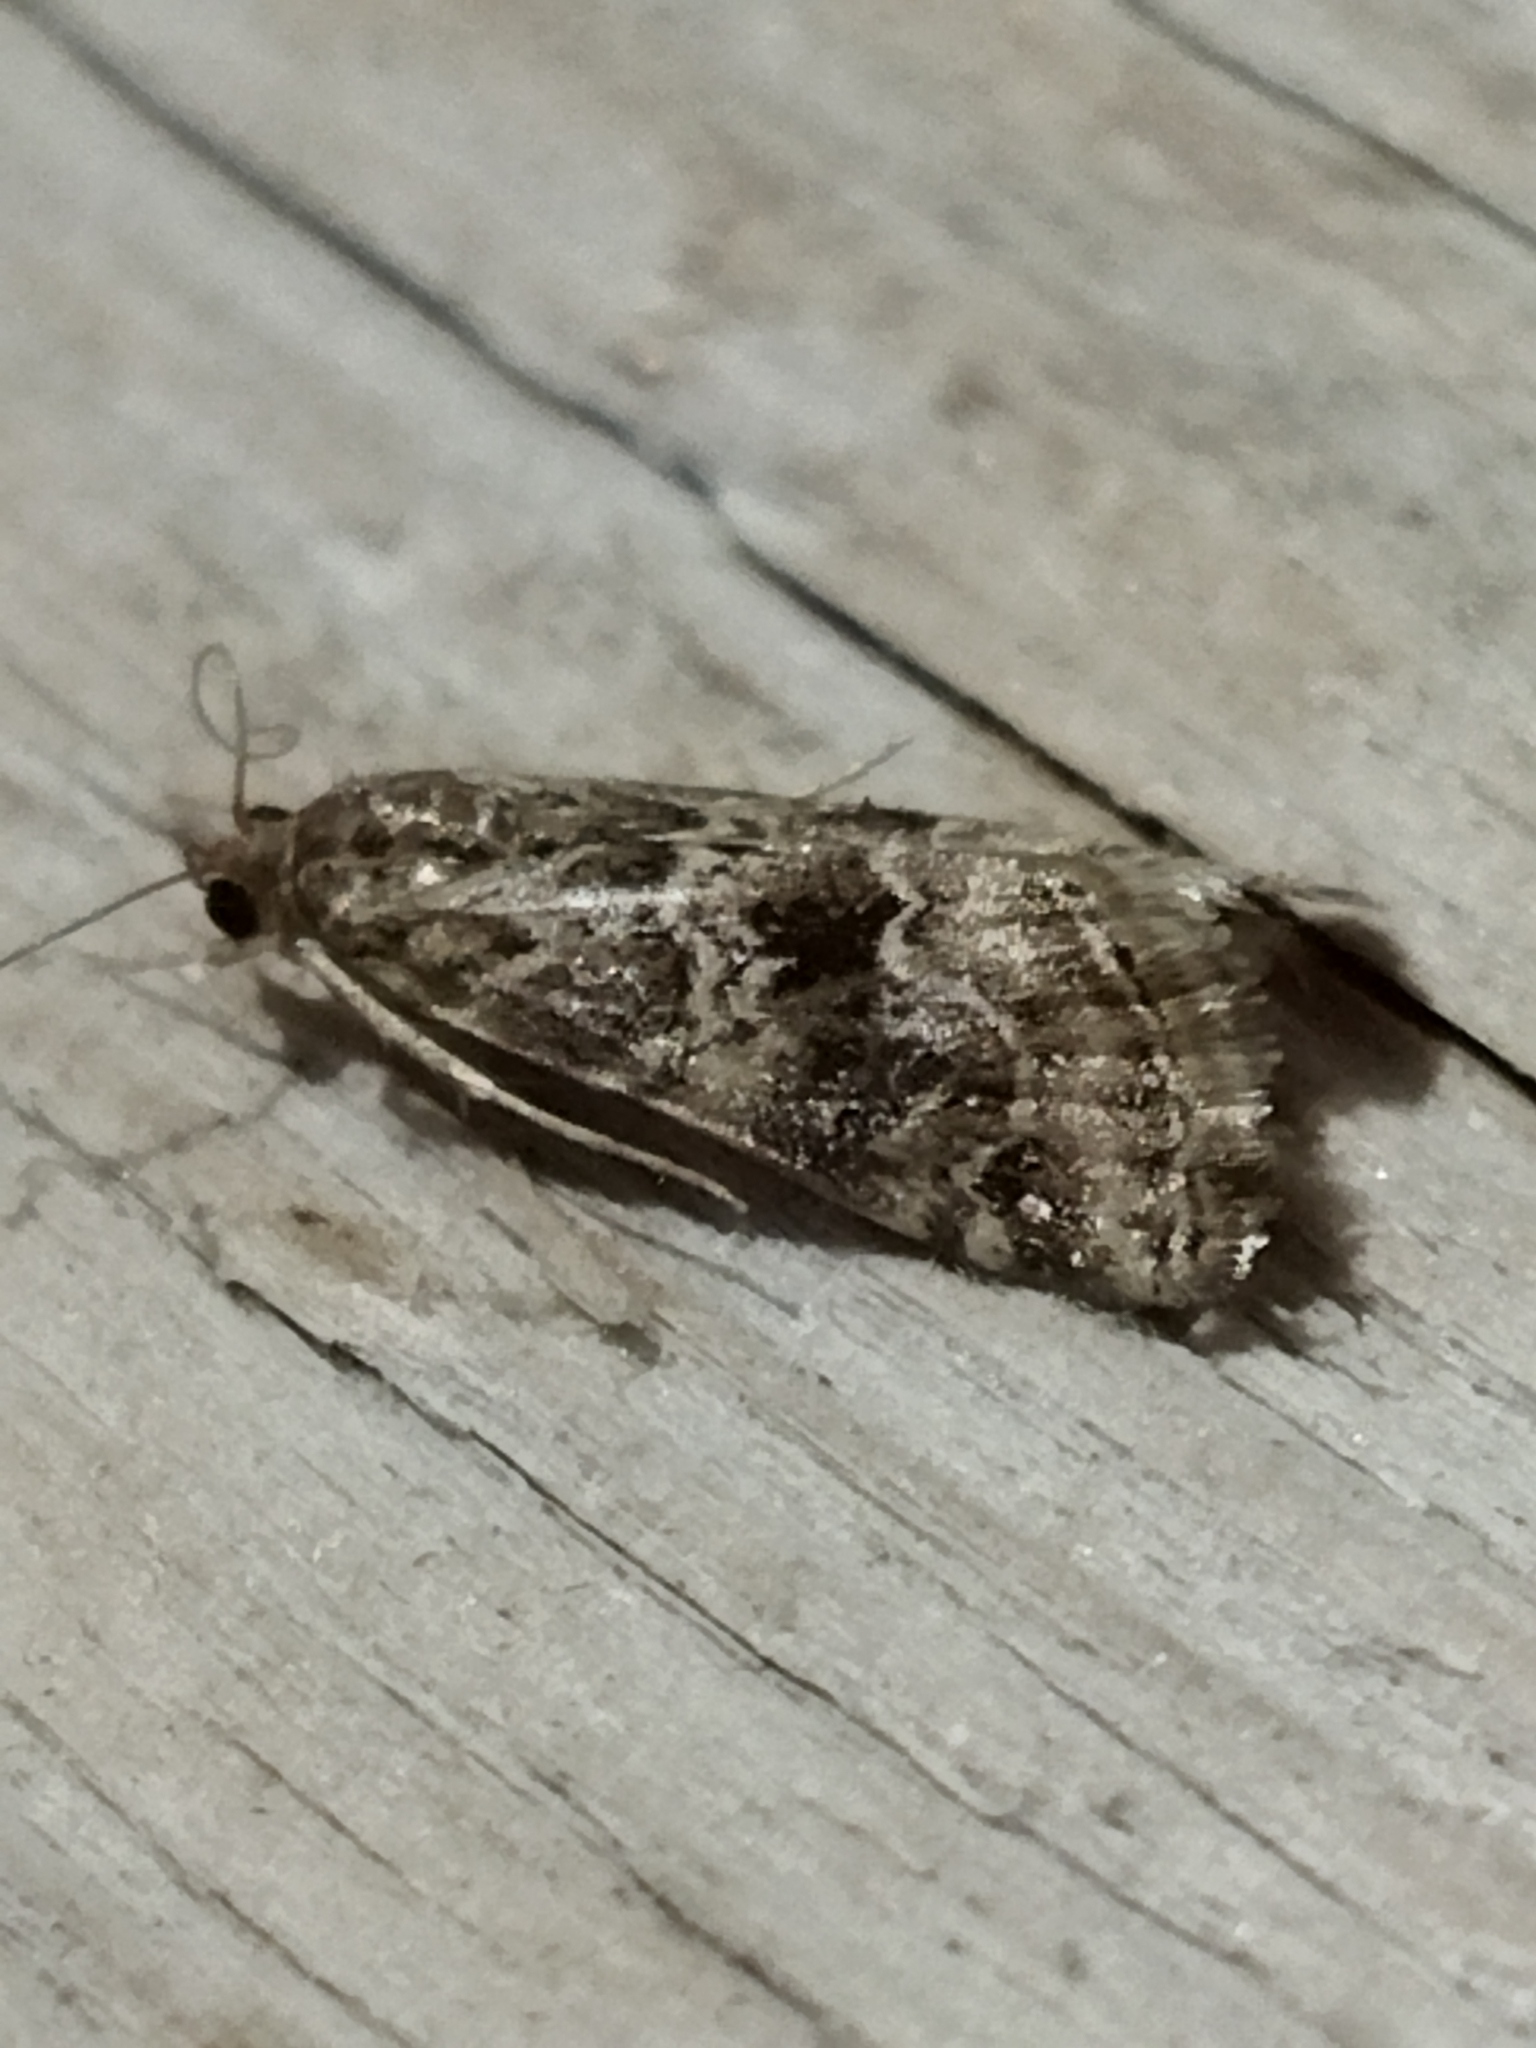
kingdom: Animalia
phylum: Arthropoda
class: Insecta
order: Lepidoptera
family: Crambidae
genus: Hellula
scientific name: Hellula undalis
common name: Cabbage webworm
